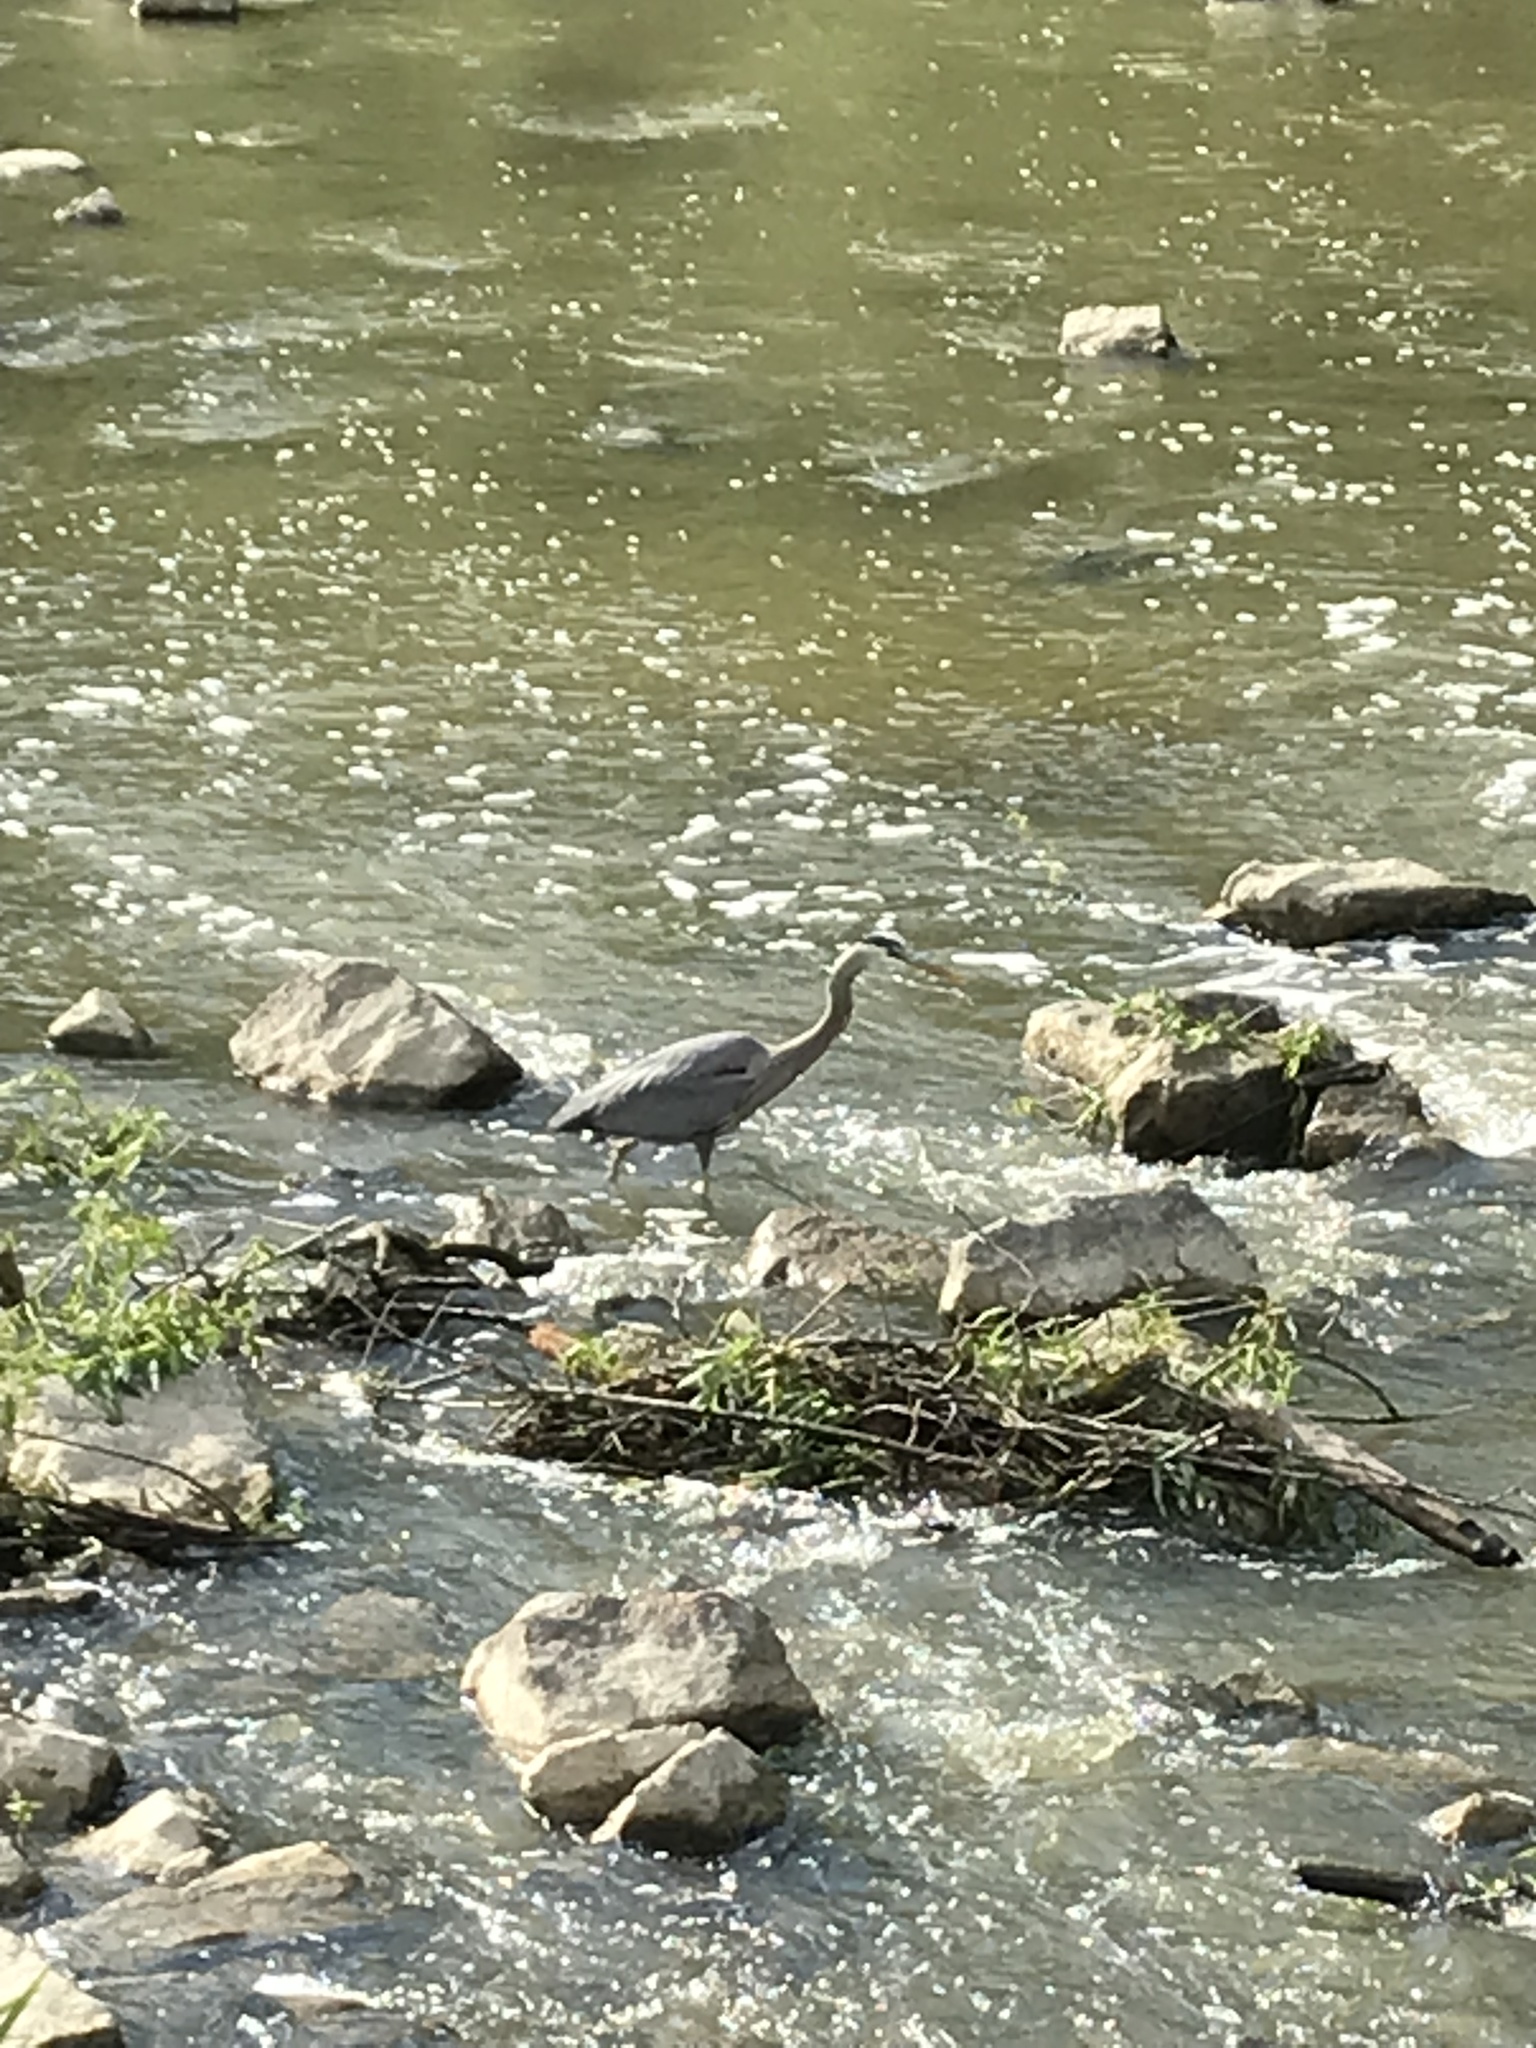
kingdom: Animalia
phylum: Chordata
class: Aves
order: Pelecaniformes
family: Ardeidae
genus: Ardea
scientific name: Ardea herodias
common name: Great blue heron
